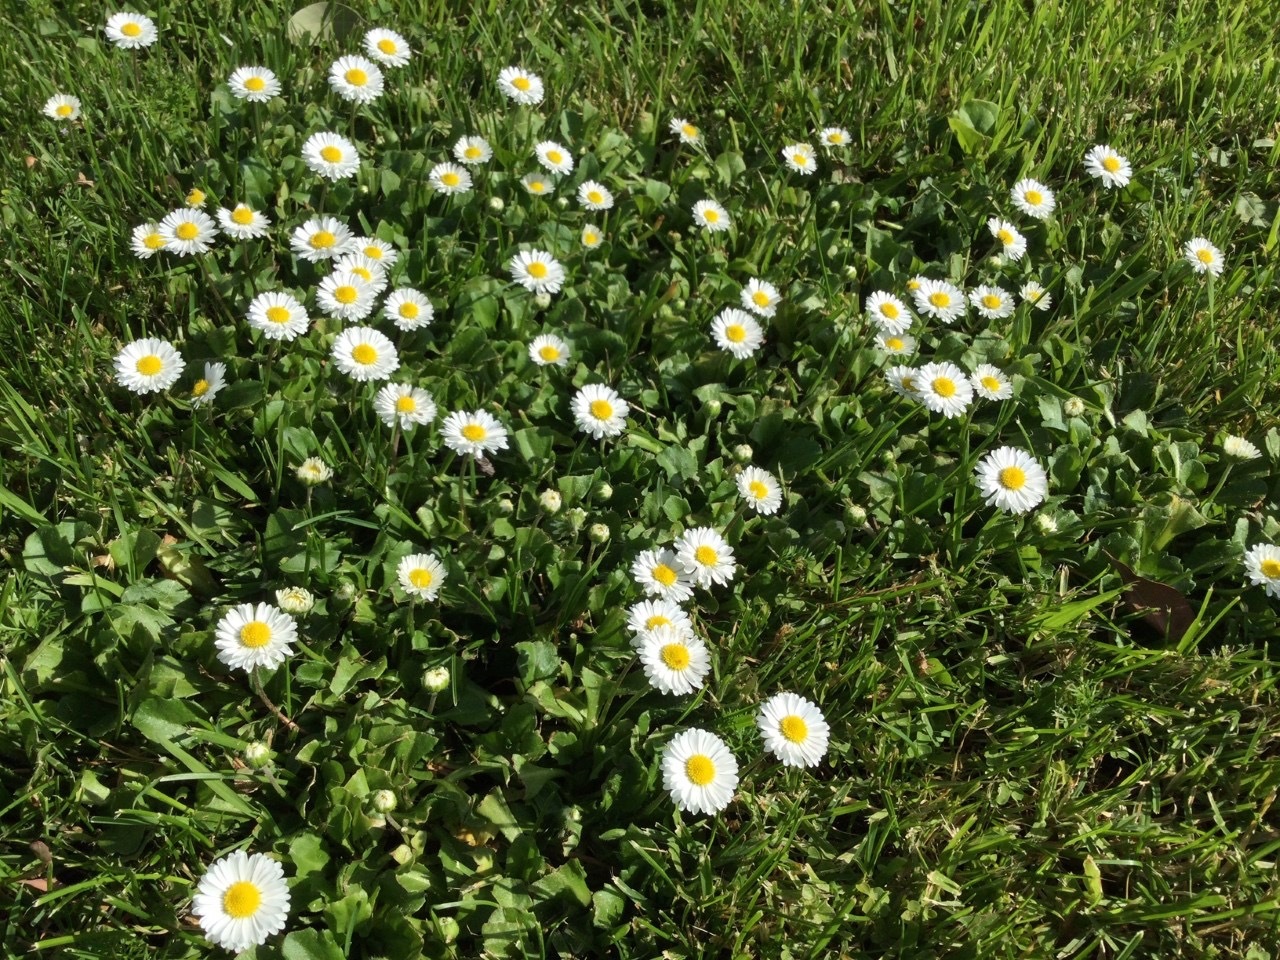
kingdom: Plantae
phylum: Tracheophyta
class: Magnoliopsida
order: Asterales
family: Asteraceae
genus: Bellis
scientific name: Bellis perennis
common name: Lawndaisy
